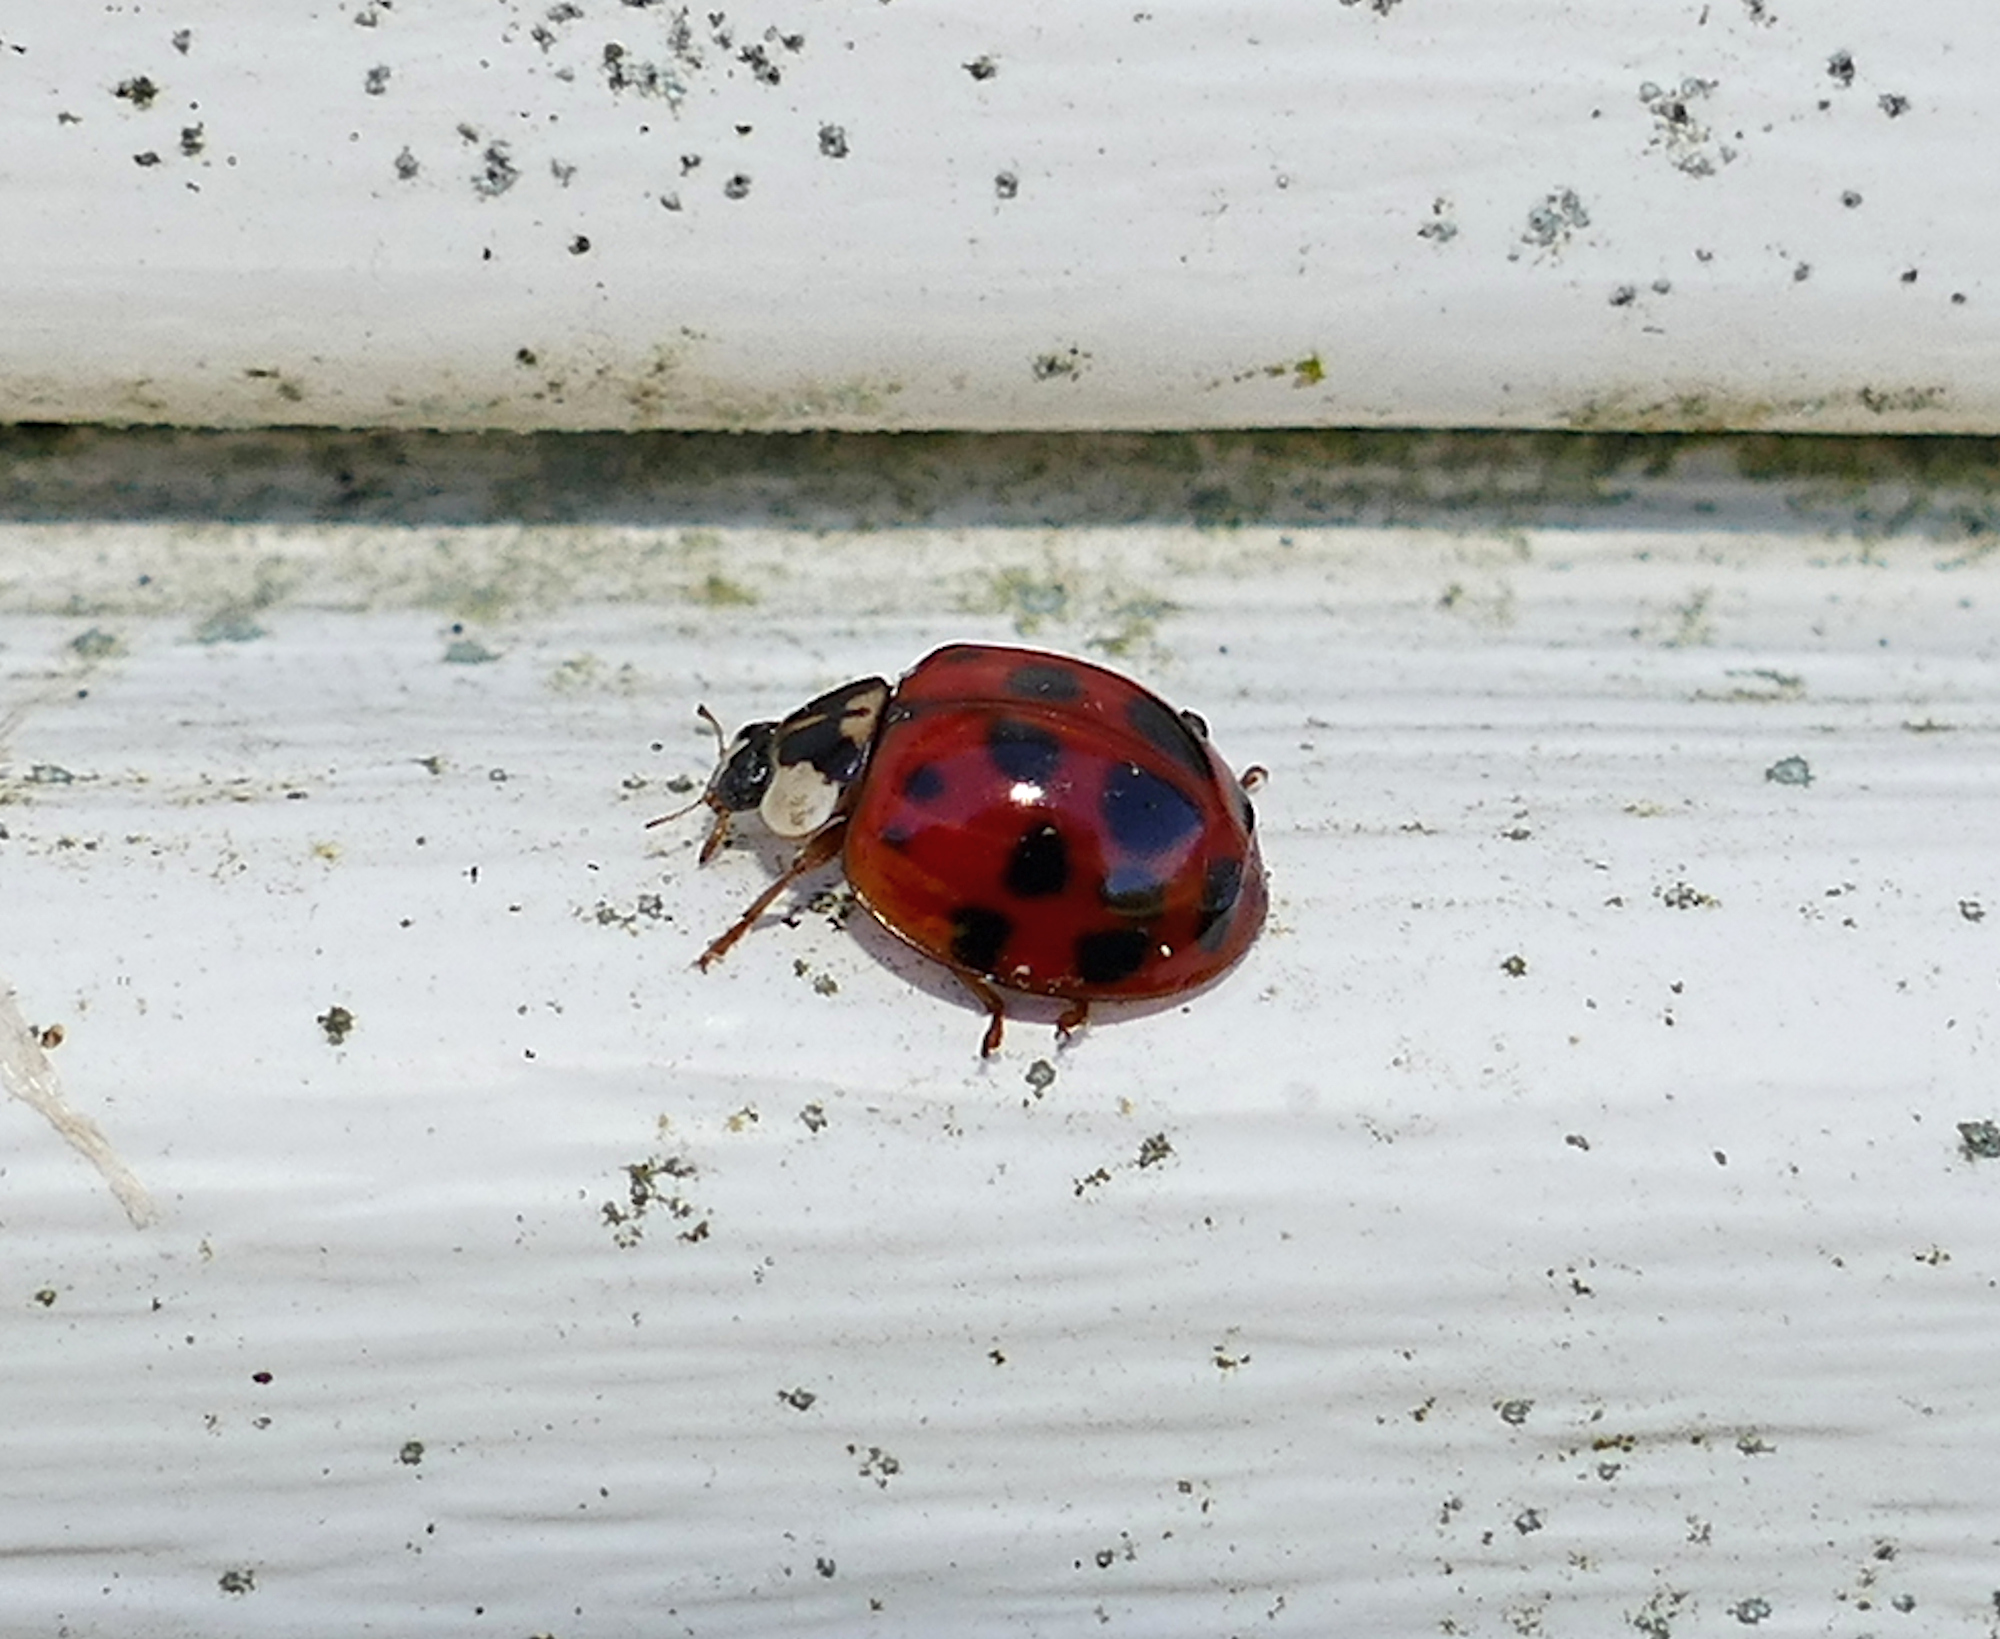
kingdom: Animalia
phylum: Arthropoda
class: Insecta
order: Coleoptera
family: Coccinellidae
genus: Harmonia
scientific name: Harmonia axyridis
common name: Harlequin ladybird
